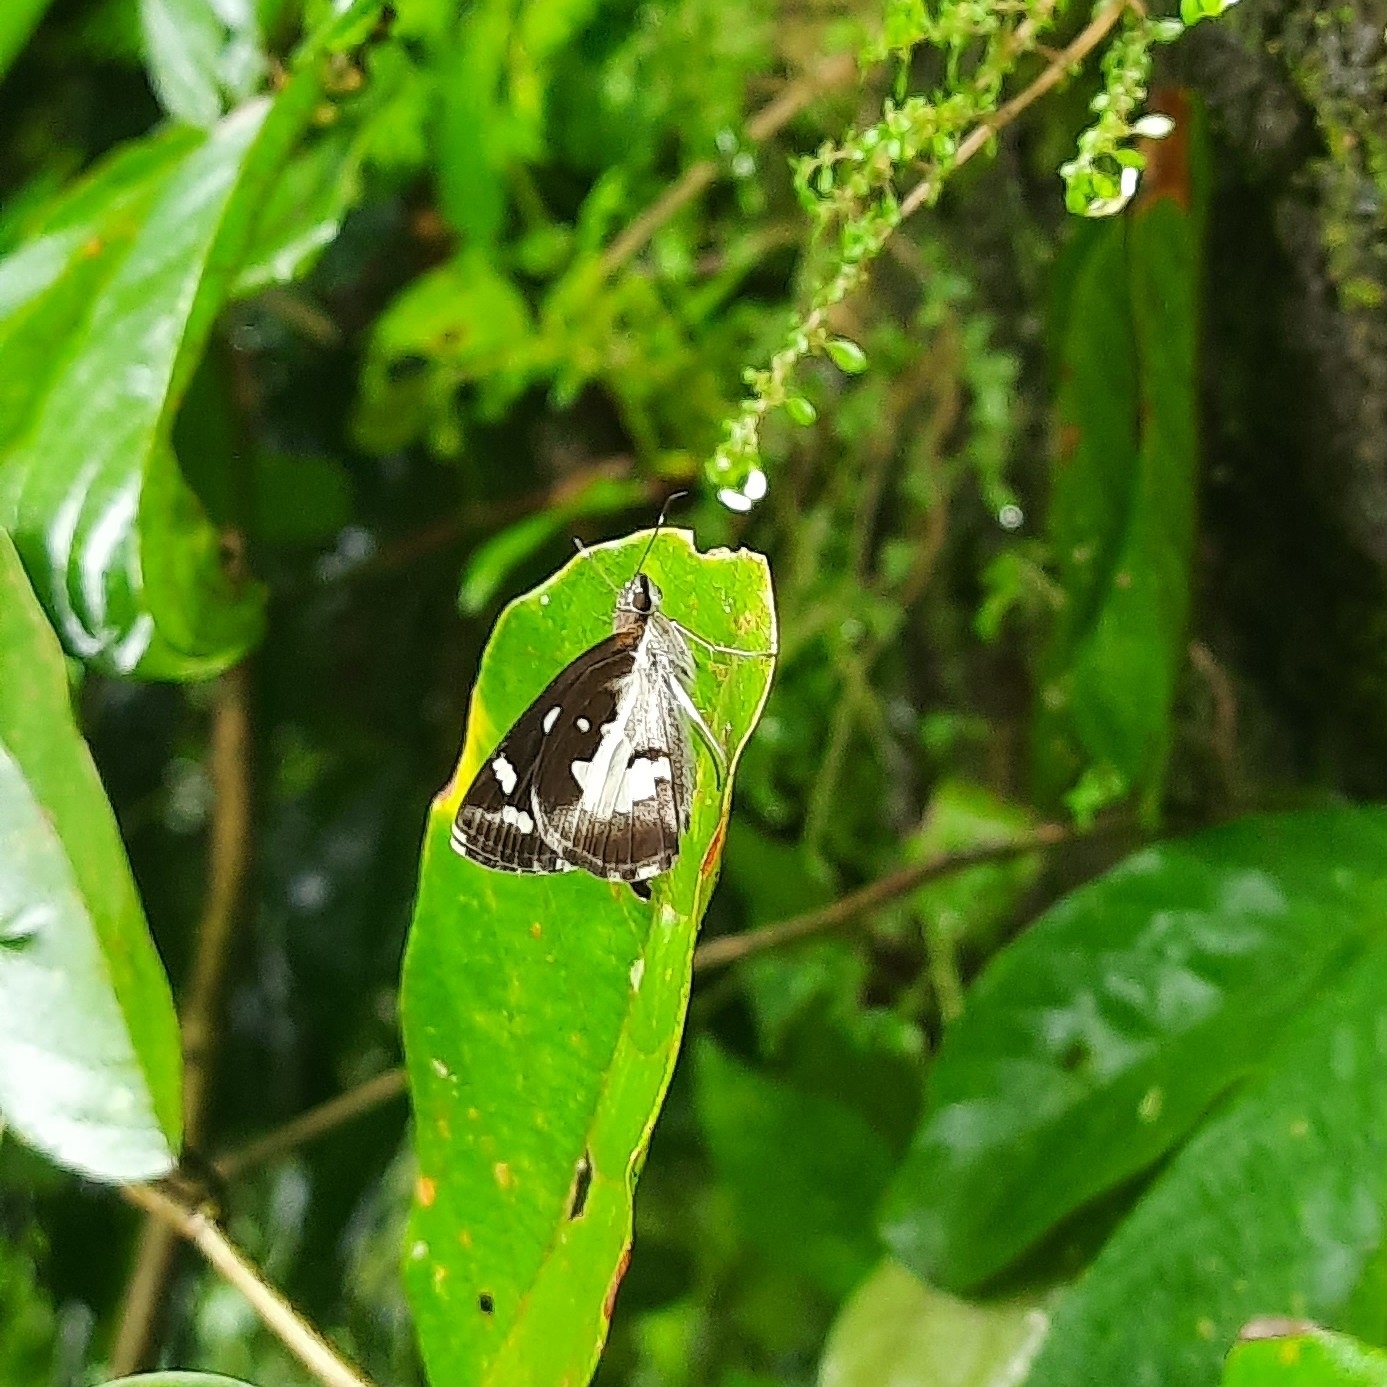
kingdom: Animalia
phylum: Arthropoda
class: Insecta
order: Lepidoptera
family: Hesperiidae
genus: Udaspes
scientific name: Udaspes folus
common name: Grass demon
